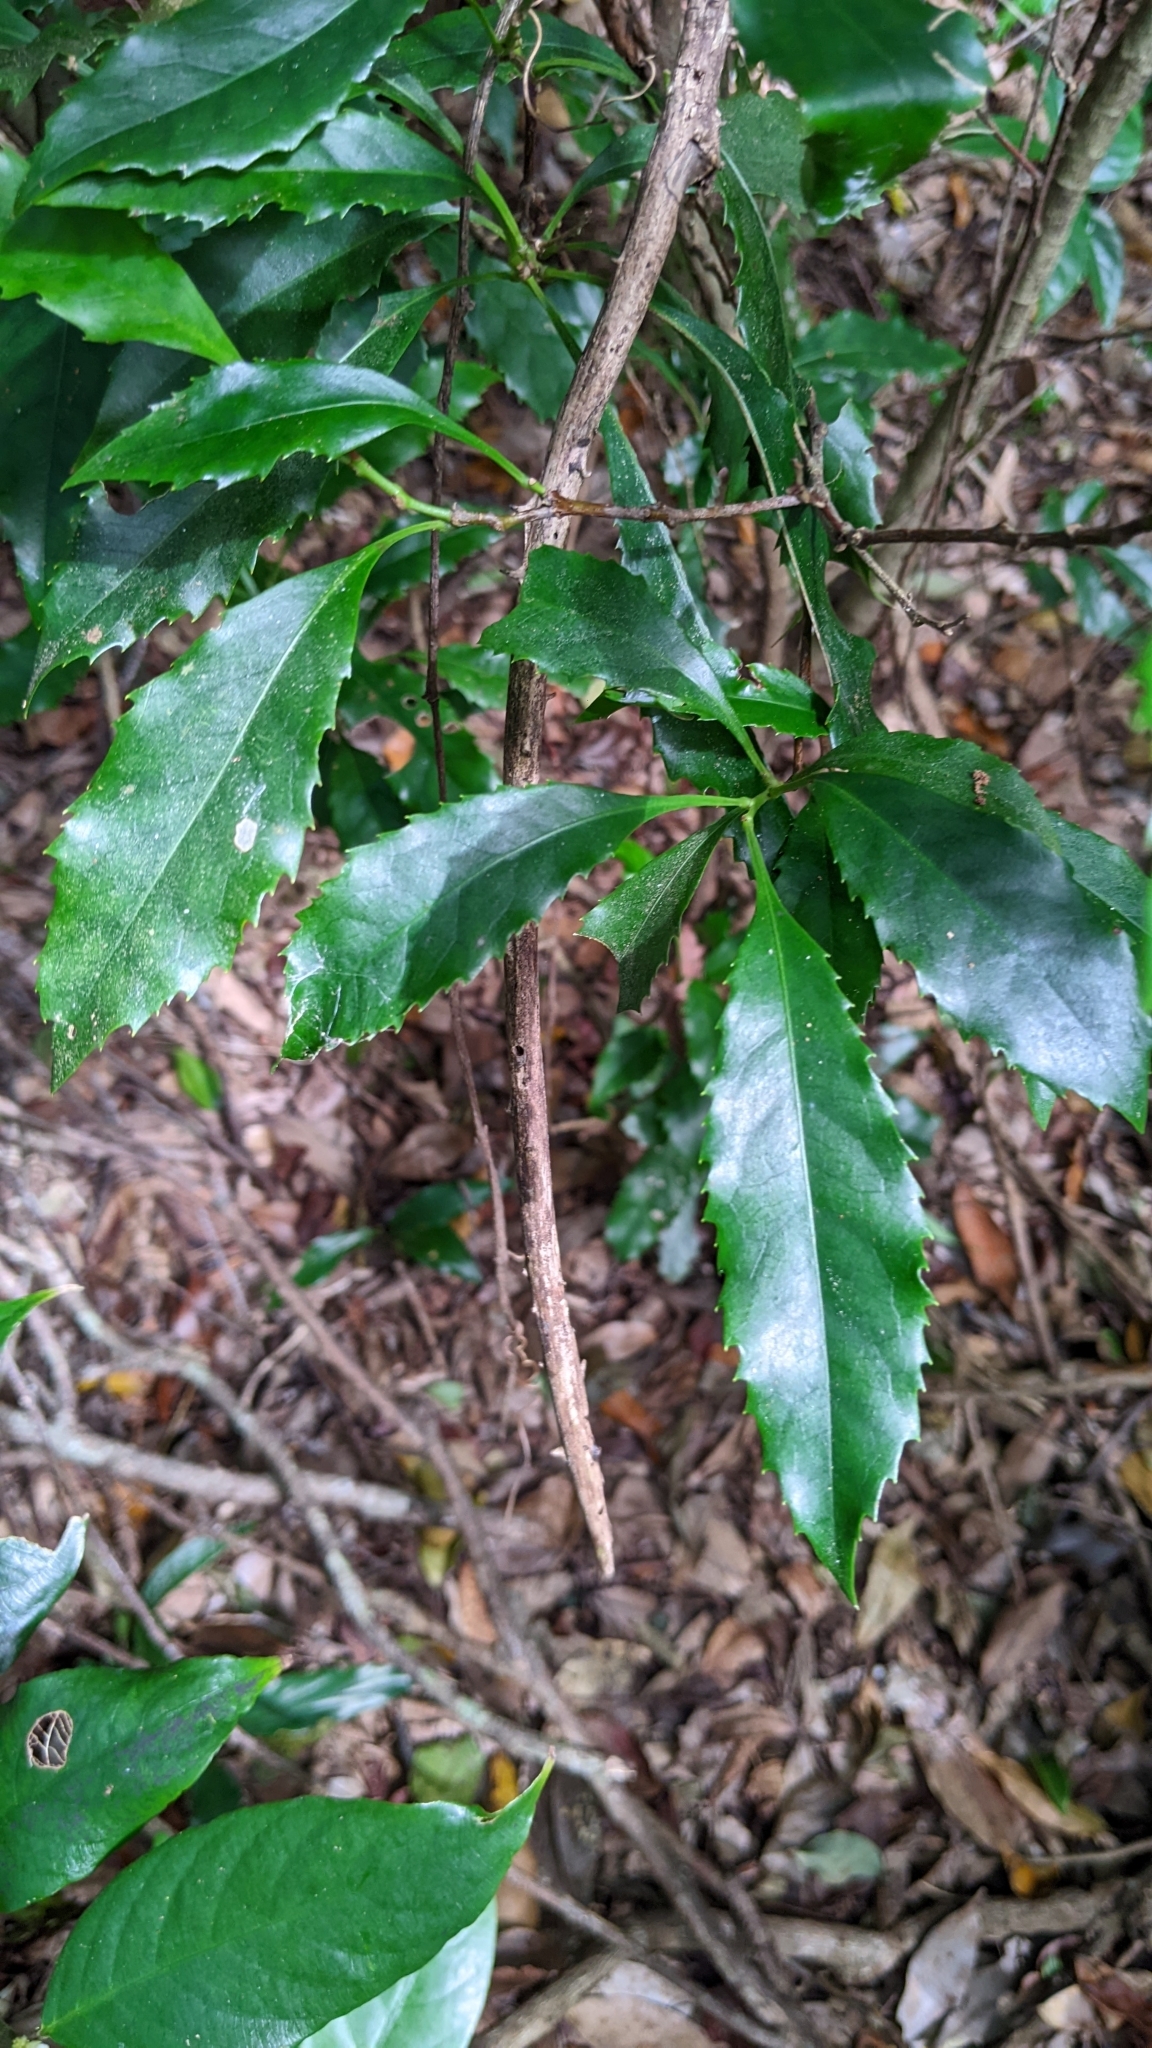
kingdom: Plantae
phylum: Tracheophyta
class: Magnoliopsida
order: Proteales
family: Proteaceae
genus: Helicia
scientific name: Helicia cochinchinensis
